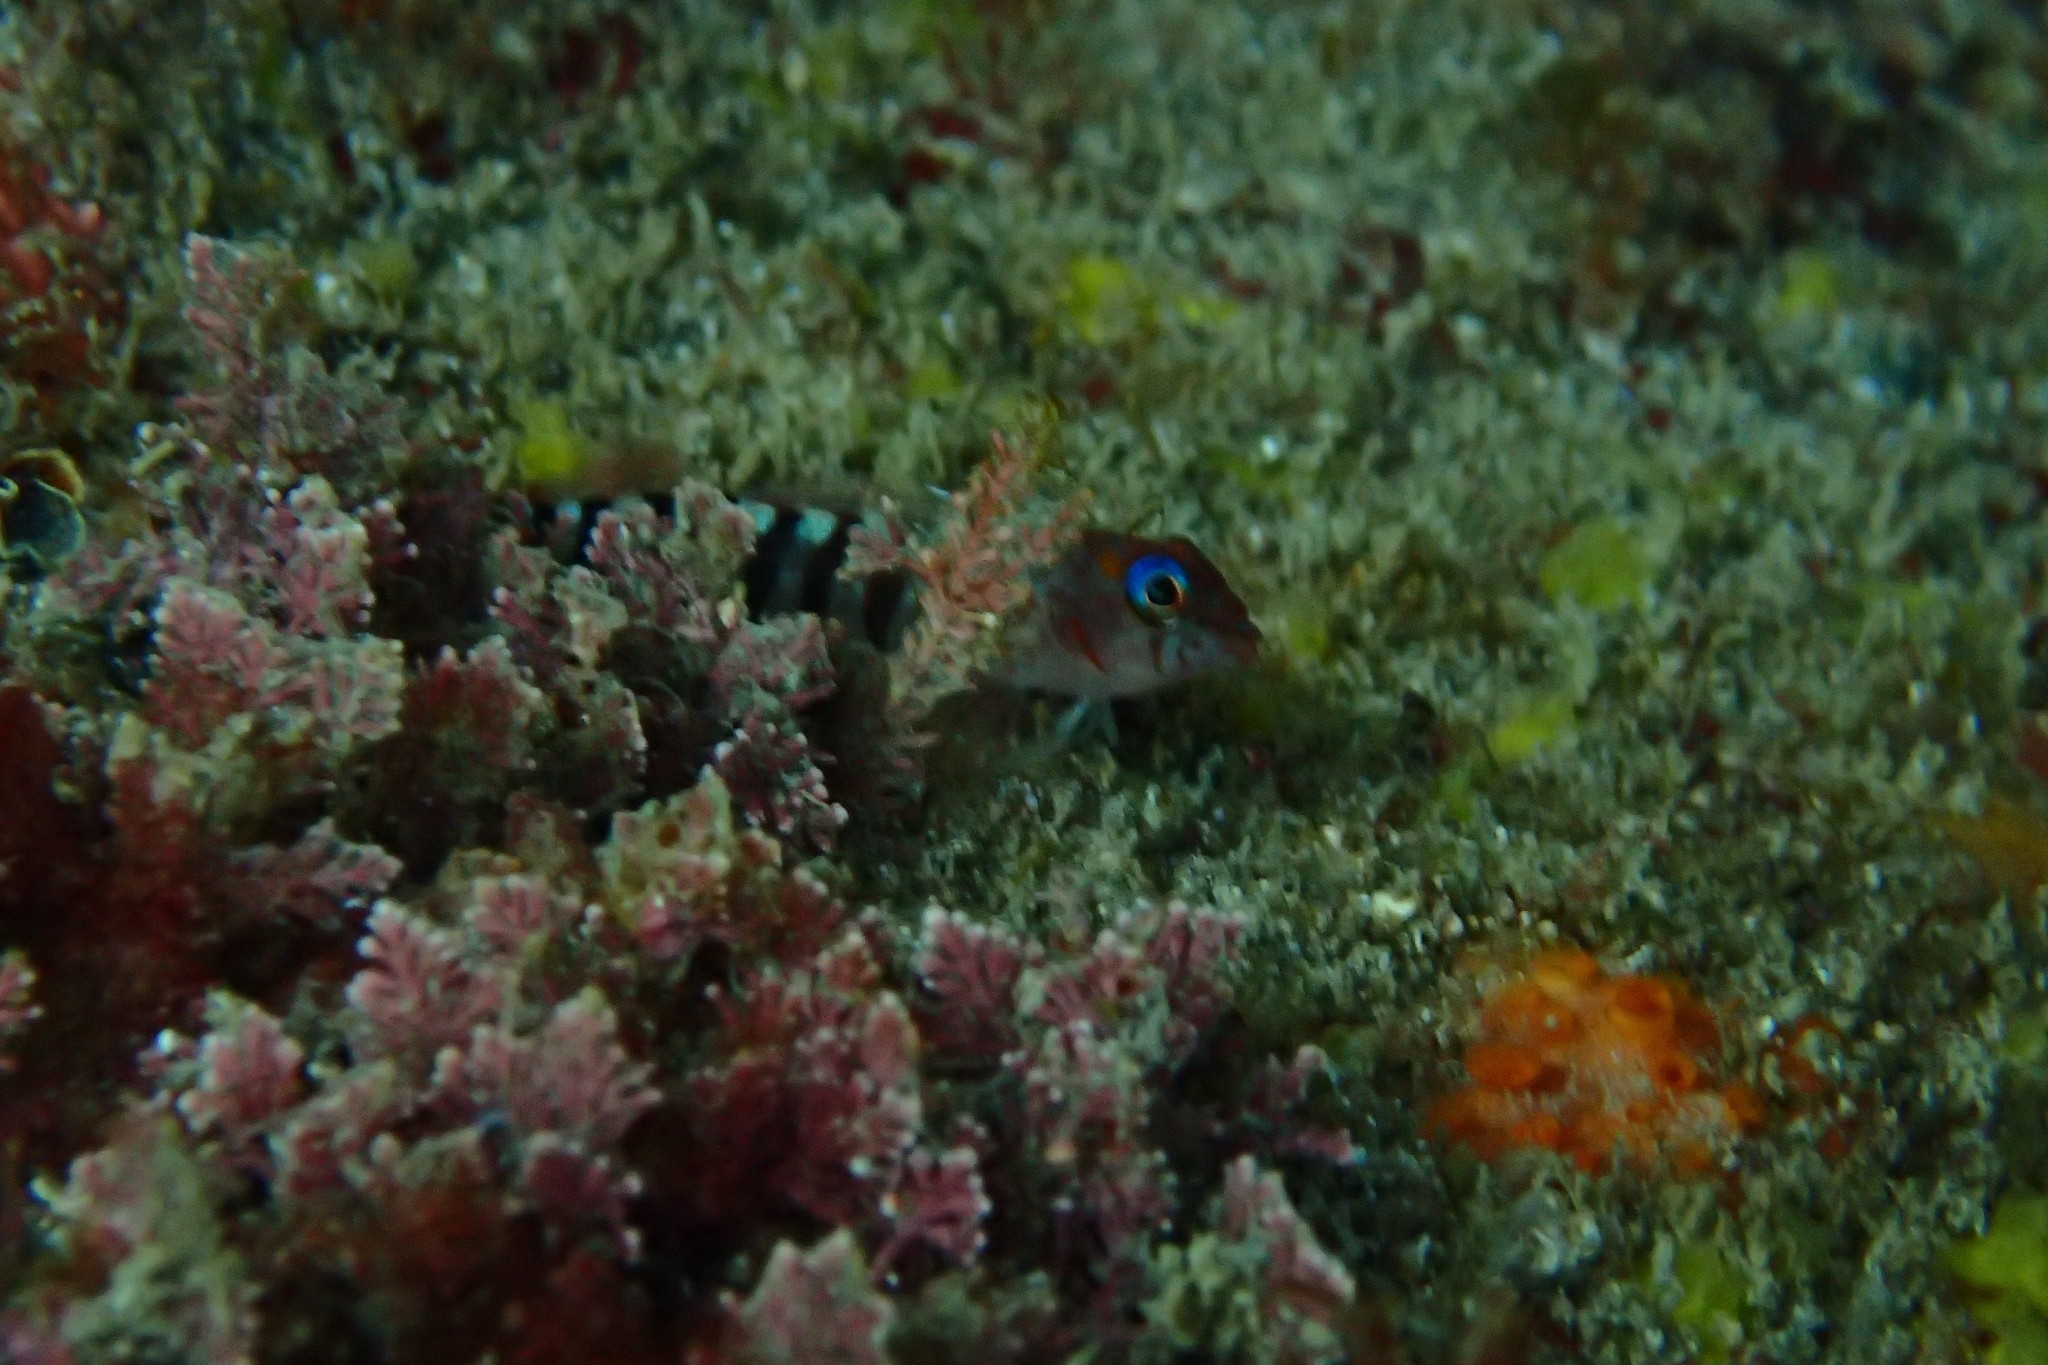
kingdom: Animalia
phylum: Chordata
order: Perciformes
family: Tripterygiidae
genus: Notoclinops
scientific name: Notoclinops segmentatus
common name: Blue-eyed triplefin
